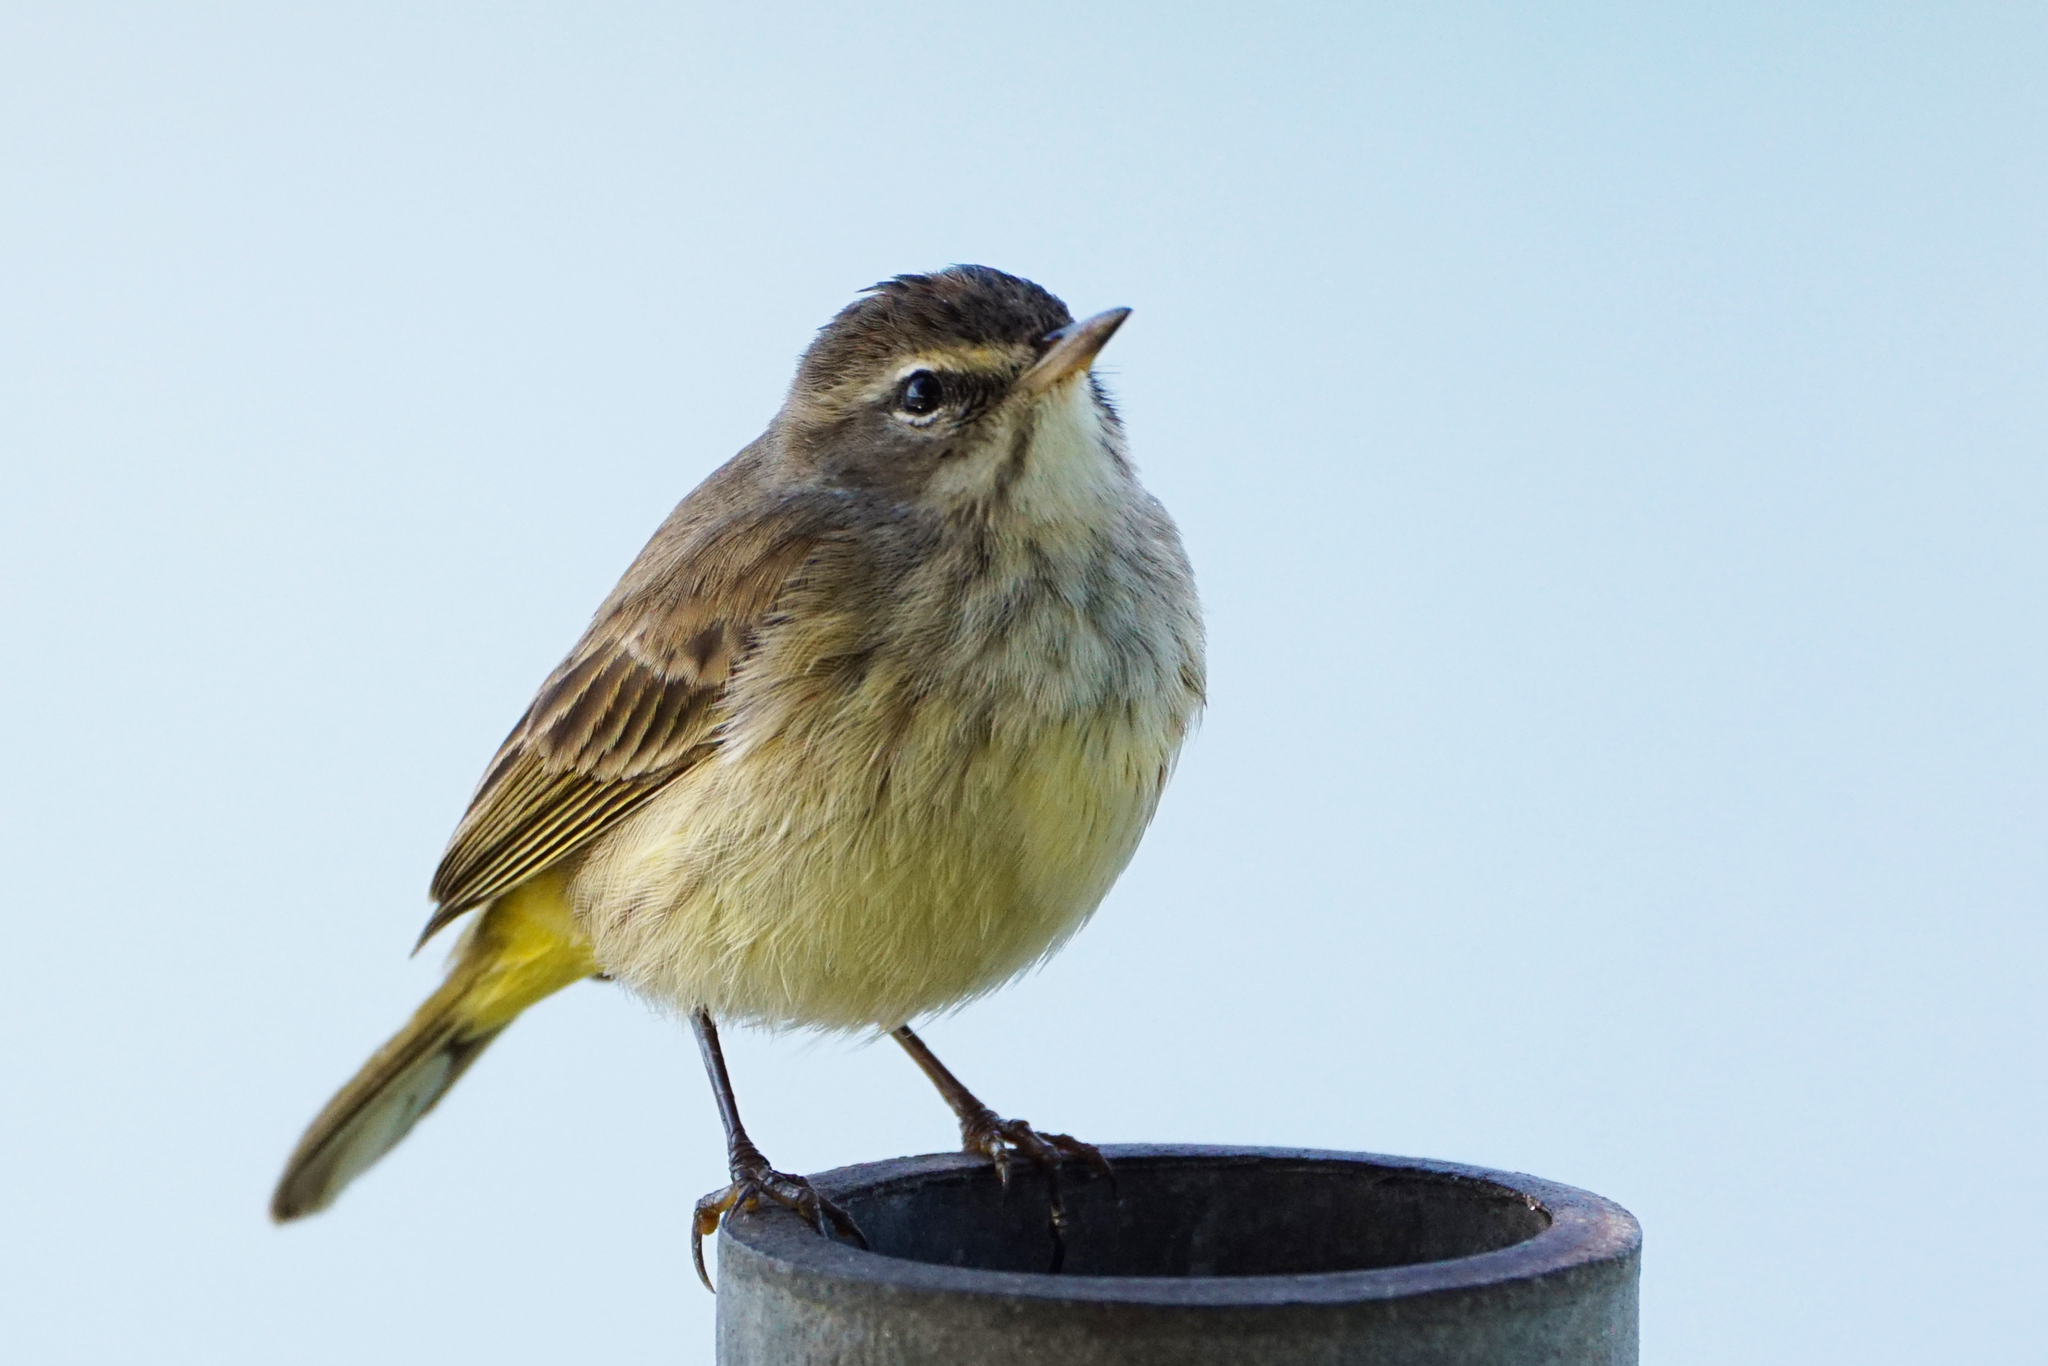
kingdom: Animalia
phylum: Chordata
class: Aves
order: Passeriformes
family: Parulidae
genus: Setophaga
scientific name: Setophaga palmarum
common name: Palm warbler
